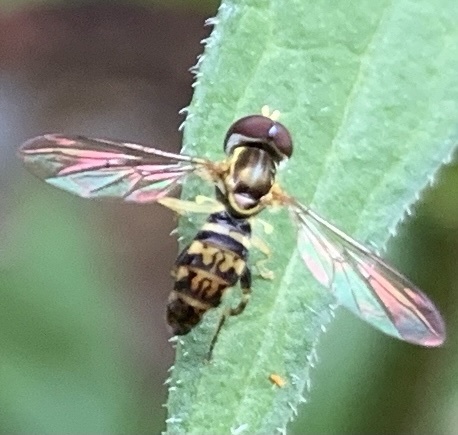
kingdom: Animalia
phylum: Arthropoda
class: Insecta
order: Diptera
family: Syrphidae
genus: Toxomerus
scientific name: Toxomerus geminatus
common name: Eastern calligrapher
